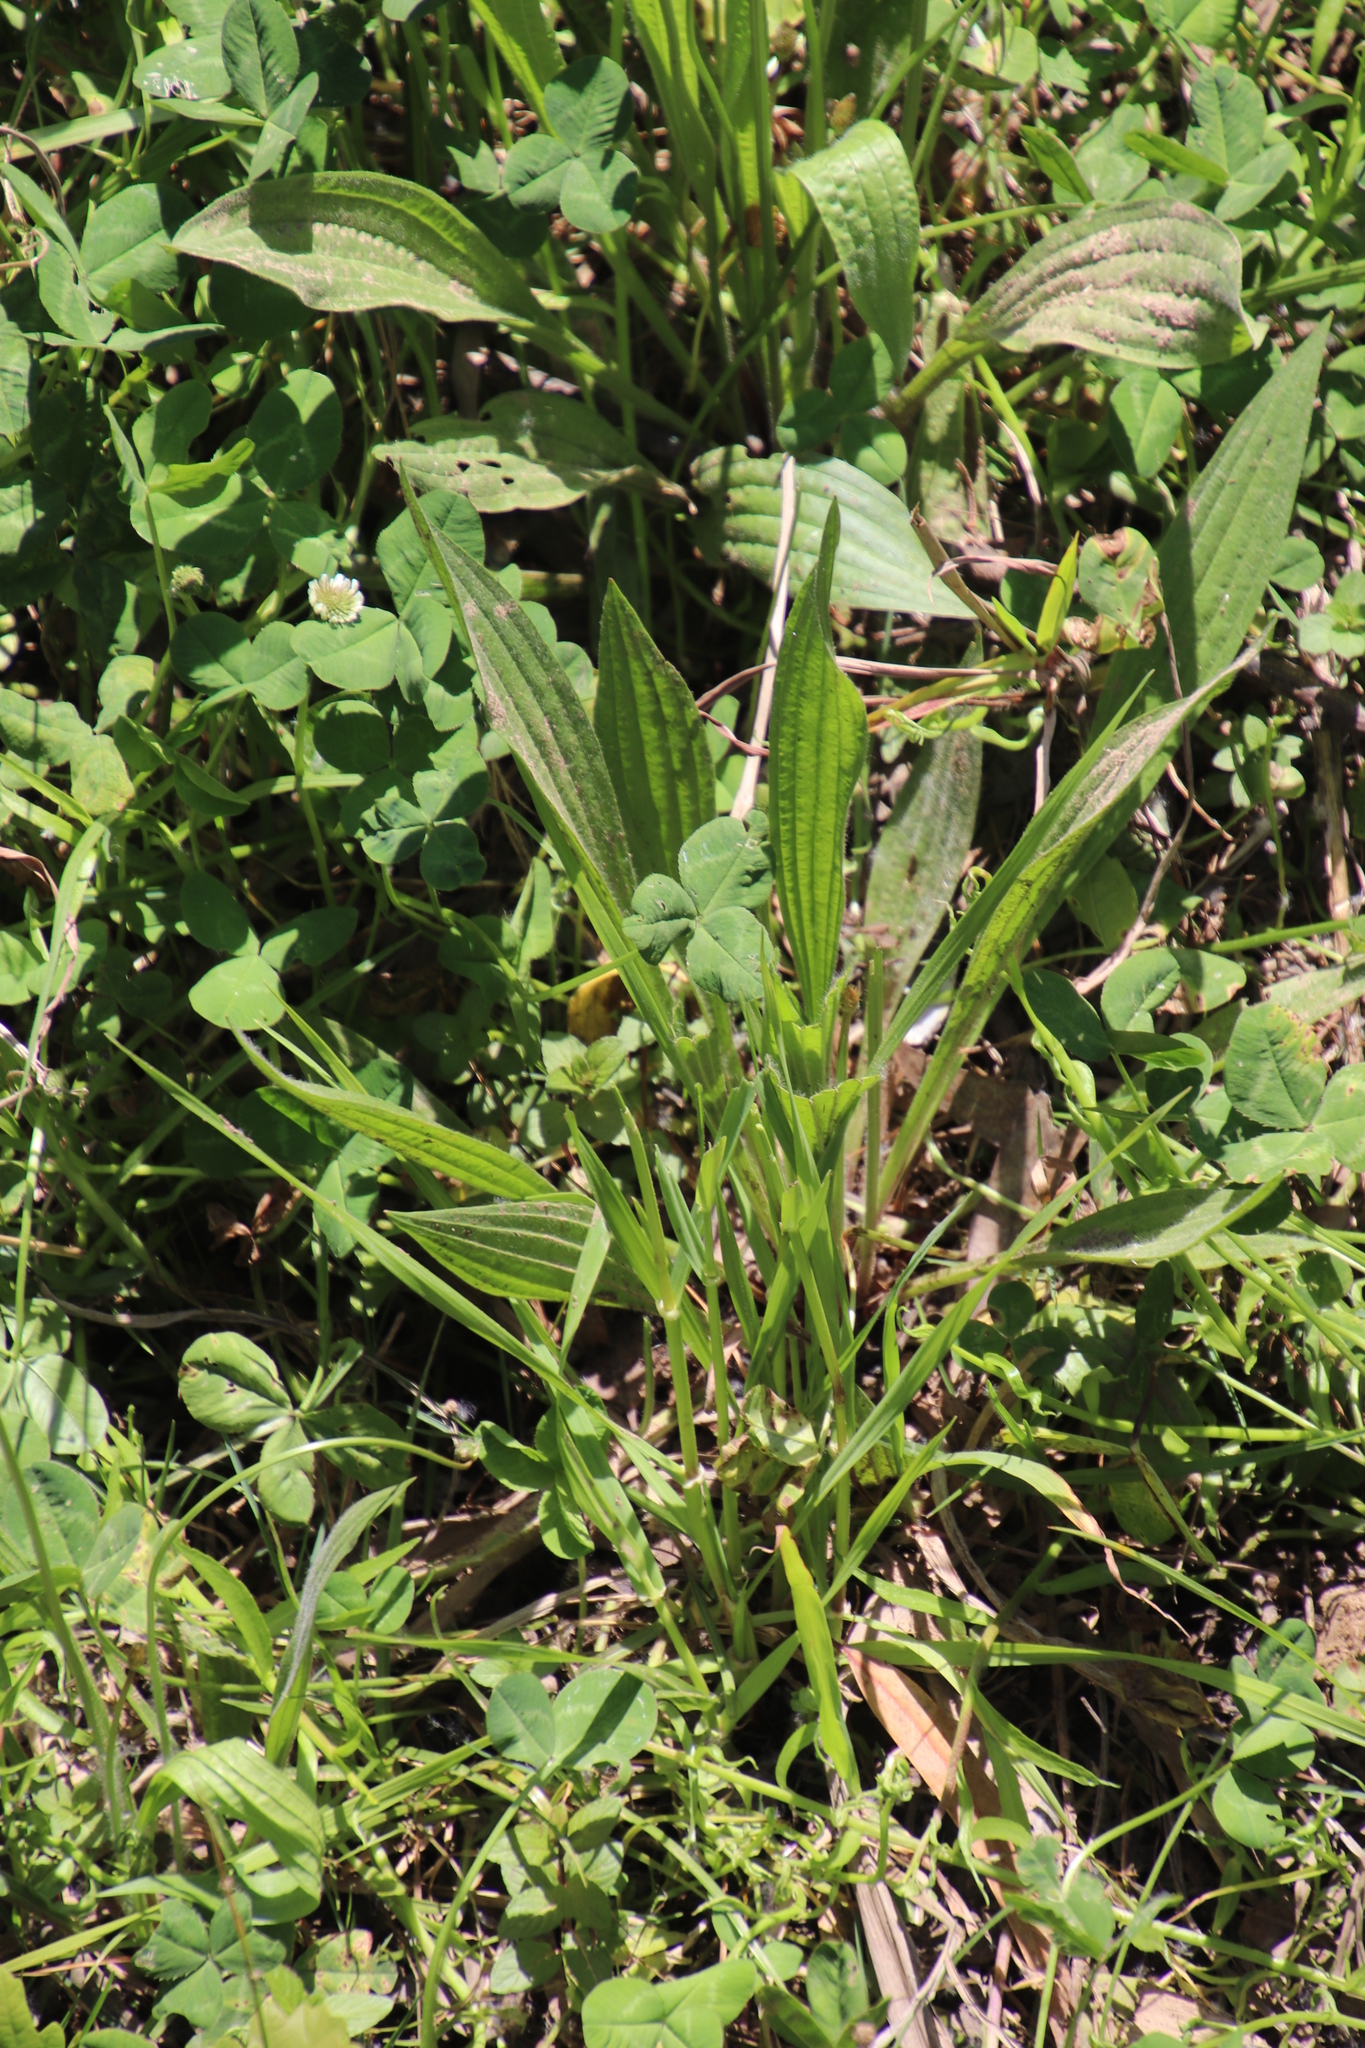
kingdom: Plantae
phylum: Tracheophyta
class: Magnoliopsida
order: Lamiales
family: Plantaginaceae
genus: Plantago
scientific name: Plantago lanceolata
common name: Ribwort plantain
